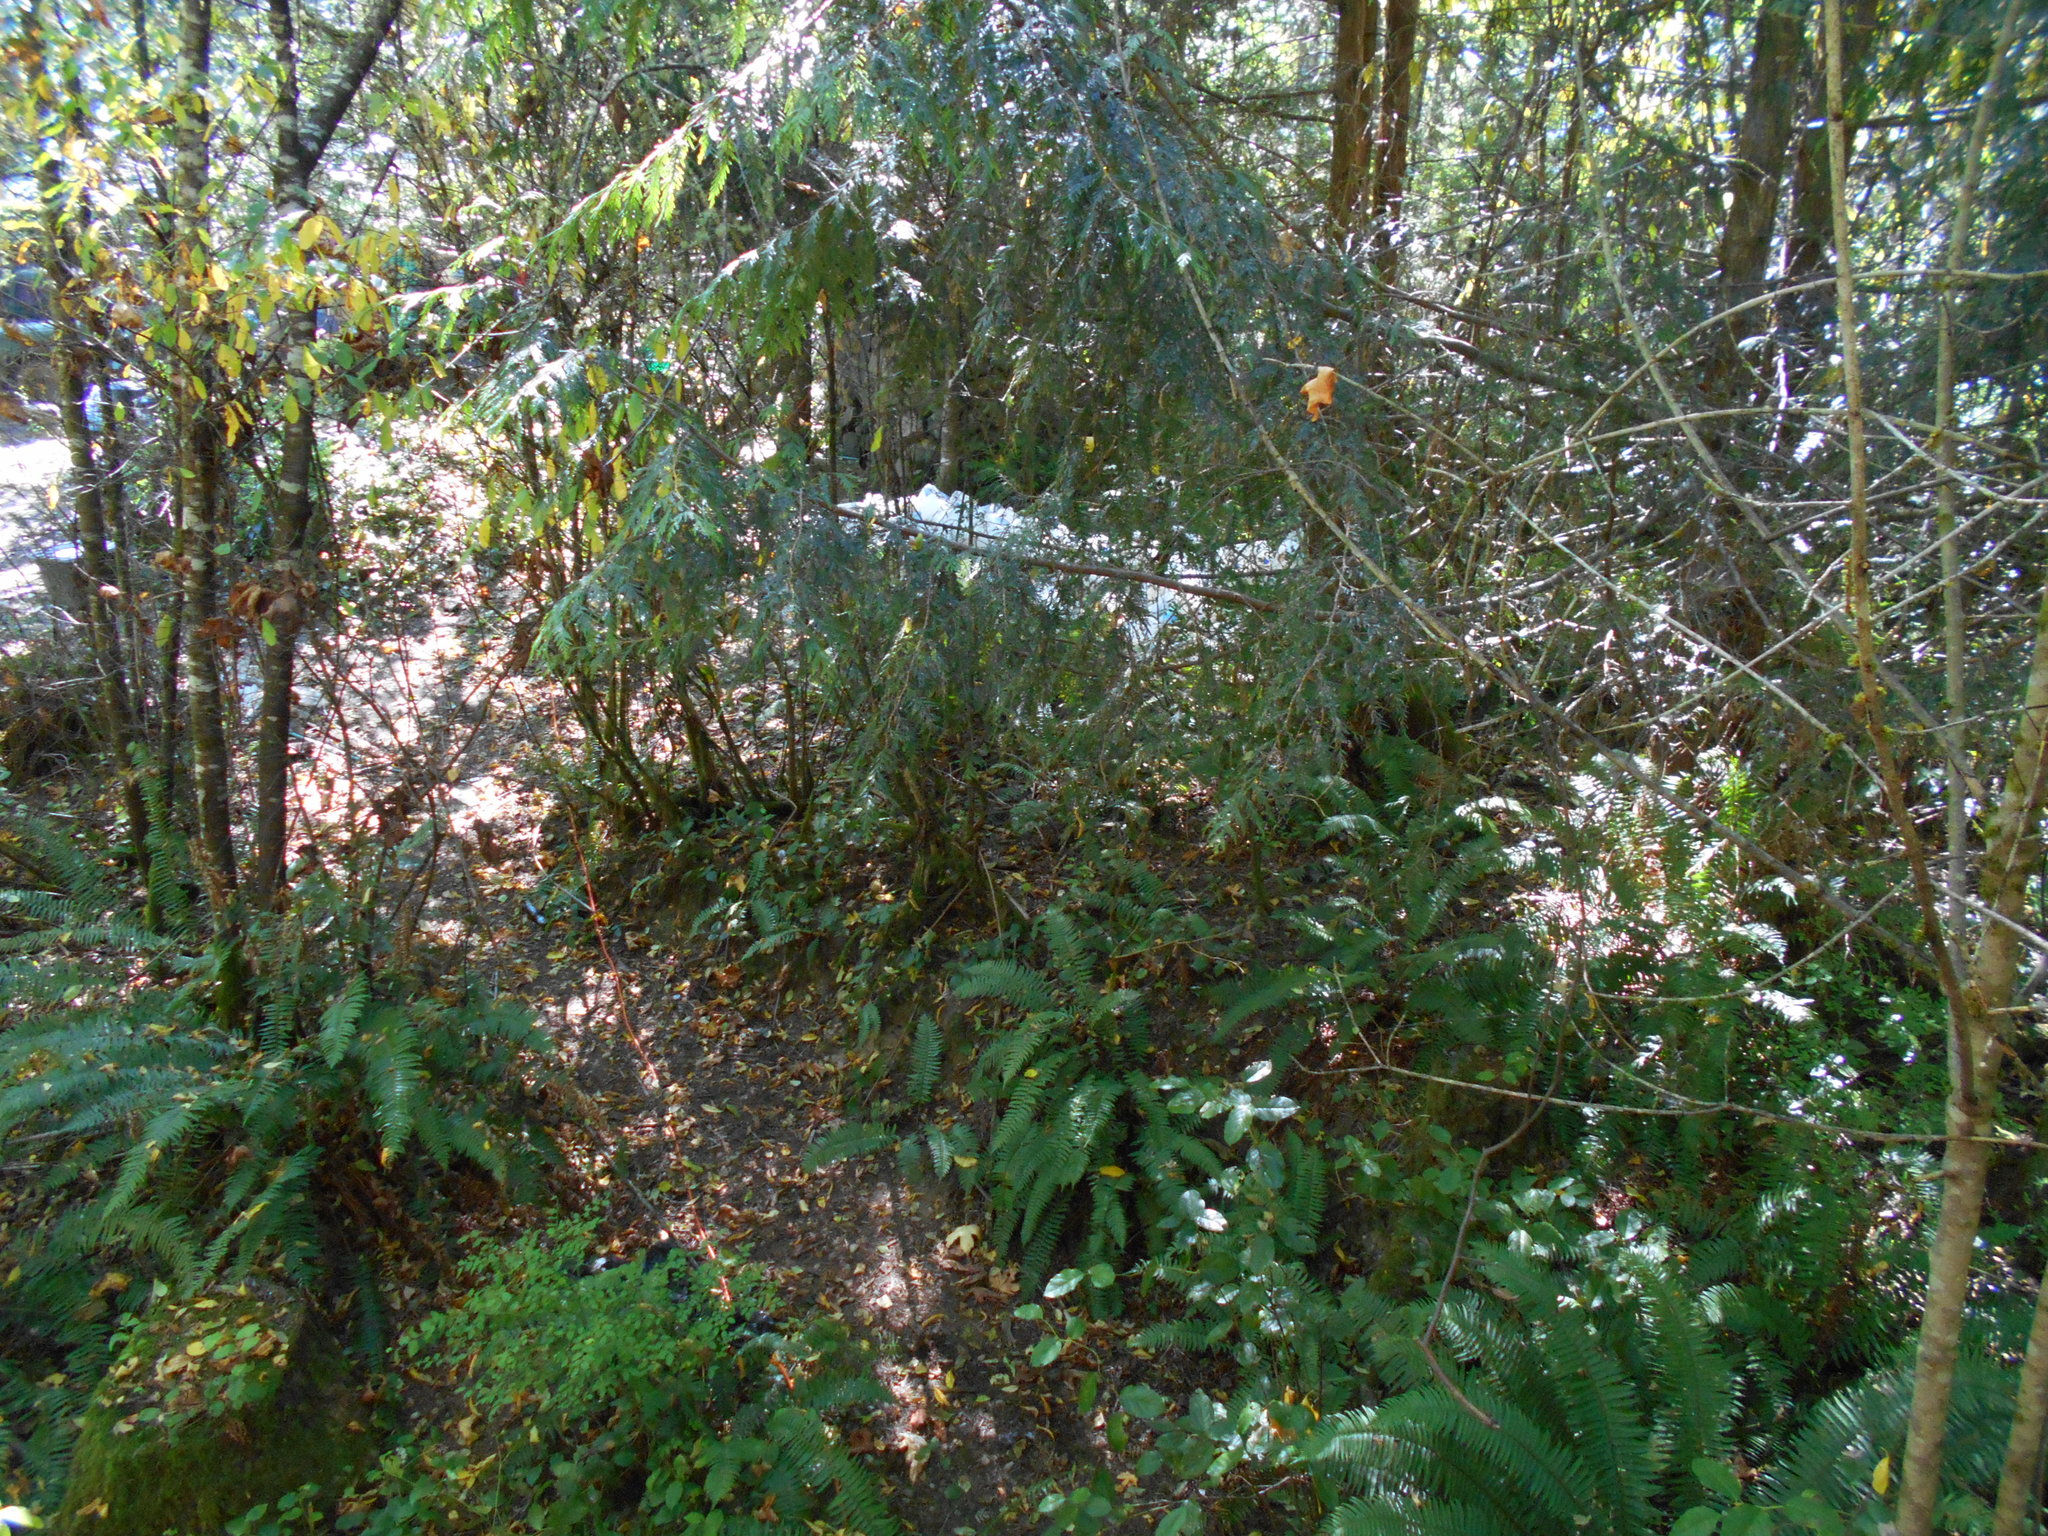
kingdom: Plantae
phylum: Tracheophyta
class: Magnoliopsida
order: Rosales
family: Rosaceae
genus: Oemleria
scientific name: Oemleria cerasiformis
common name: Osoberry
